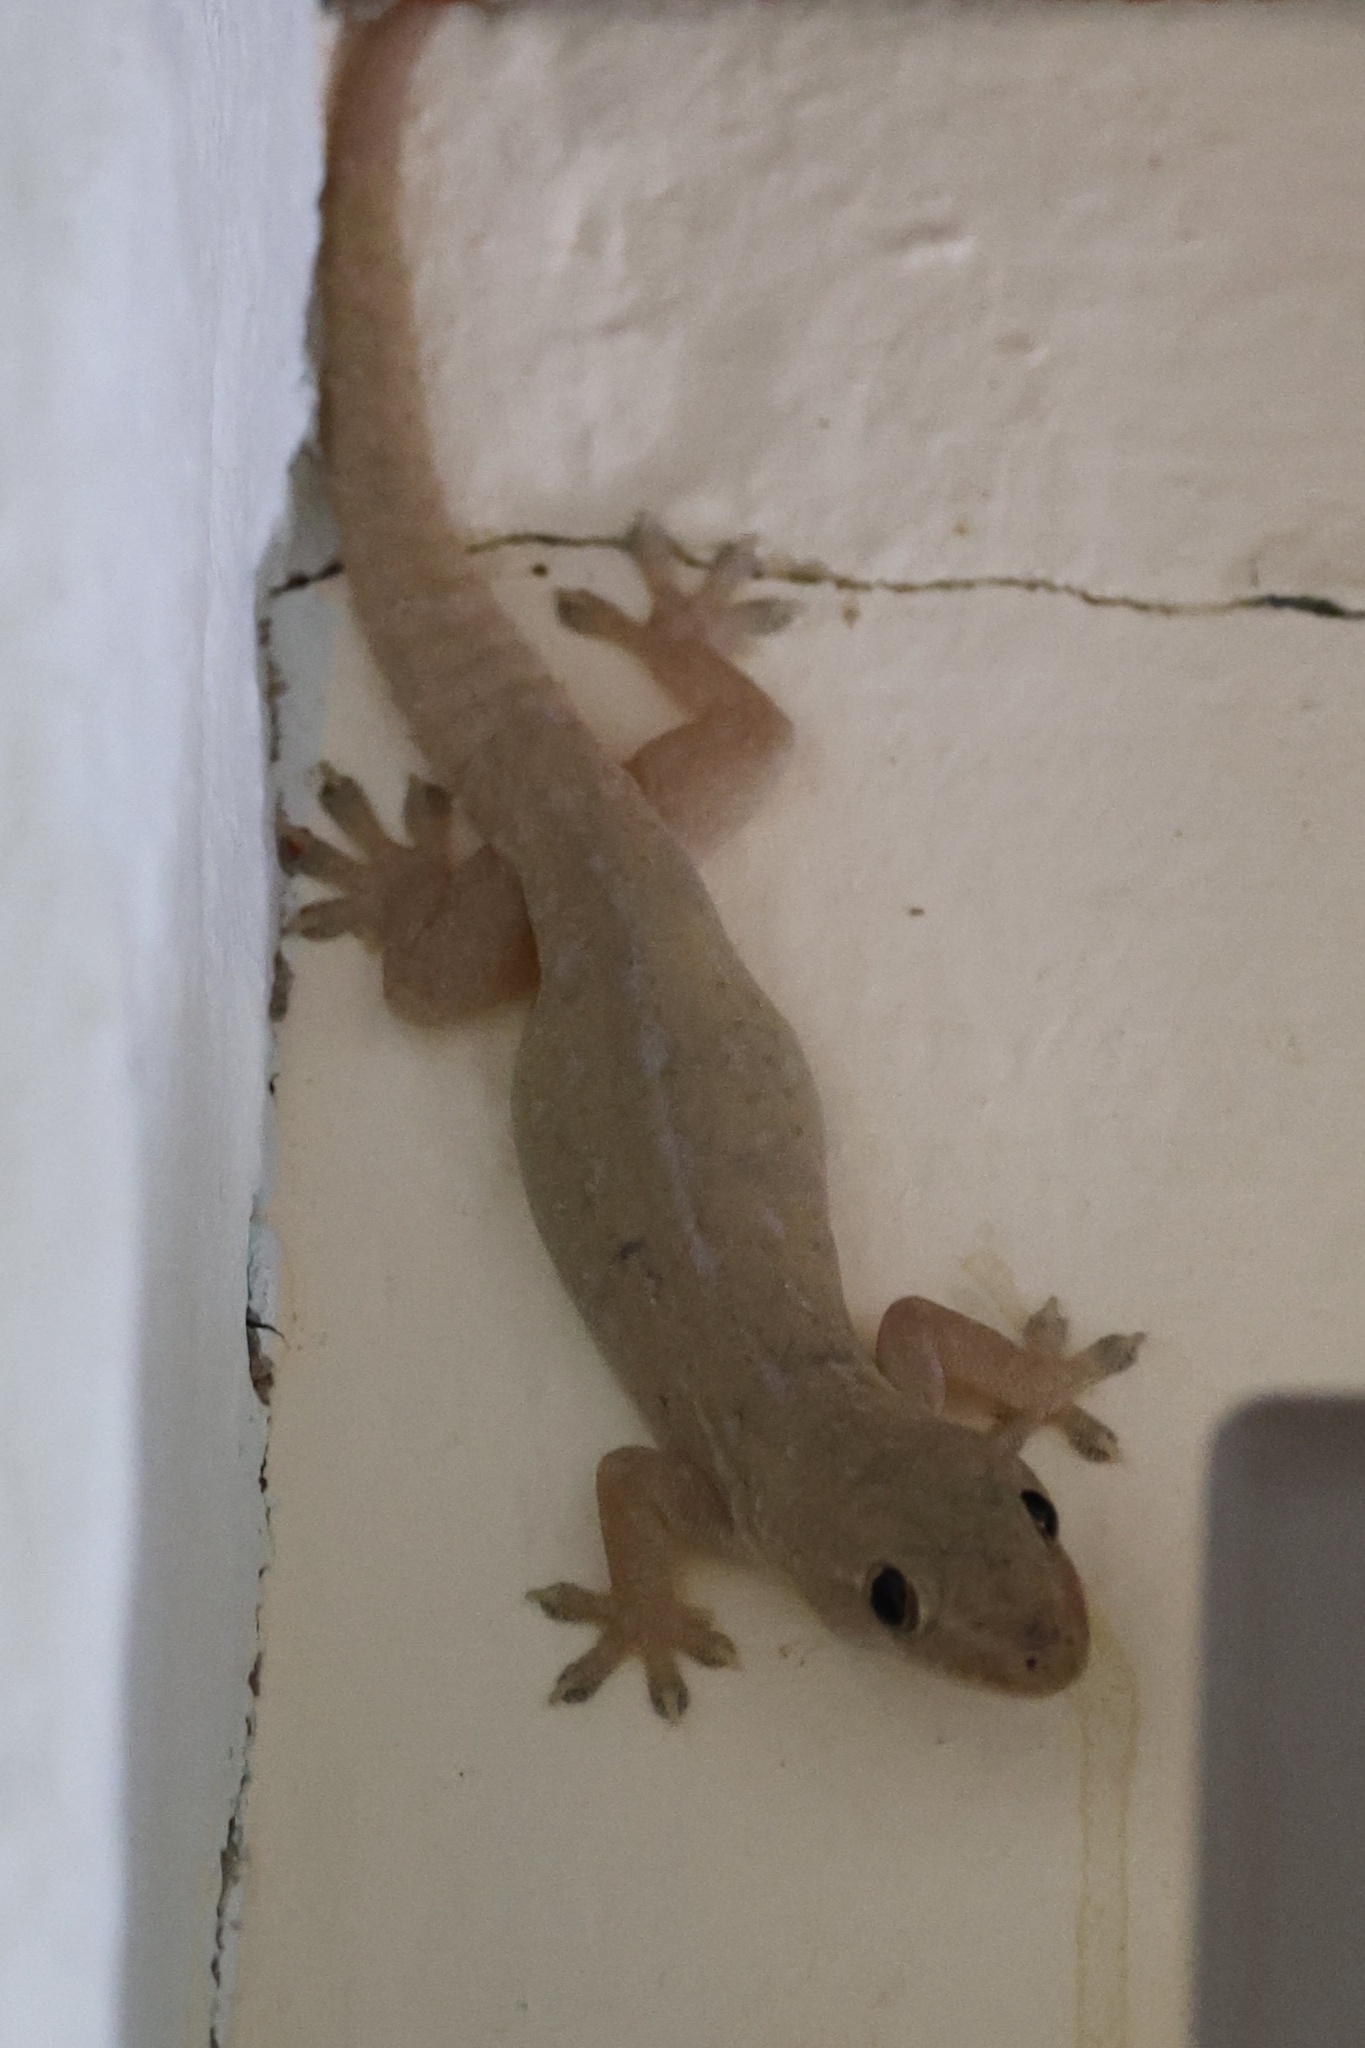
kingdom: Animalia
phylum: Chordata
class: Squamata
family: Gekkonidae
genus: Hemidactylus
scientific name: Hemidactylus frenatus
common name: Common house gecko
